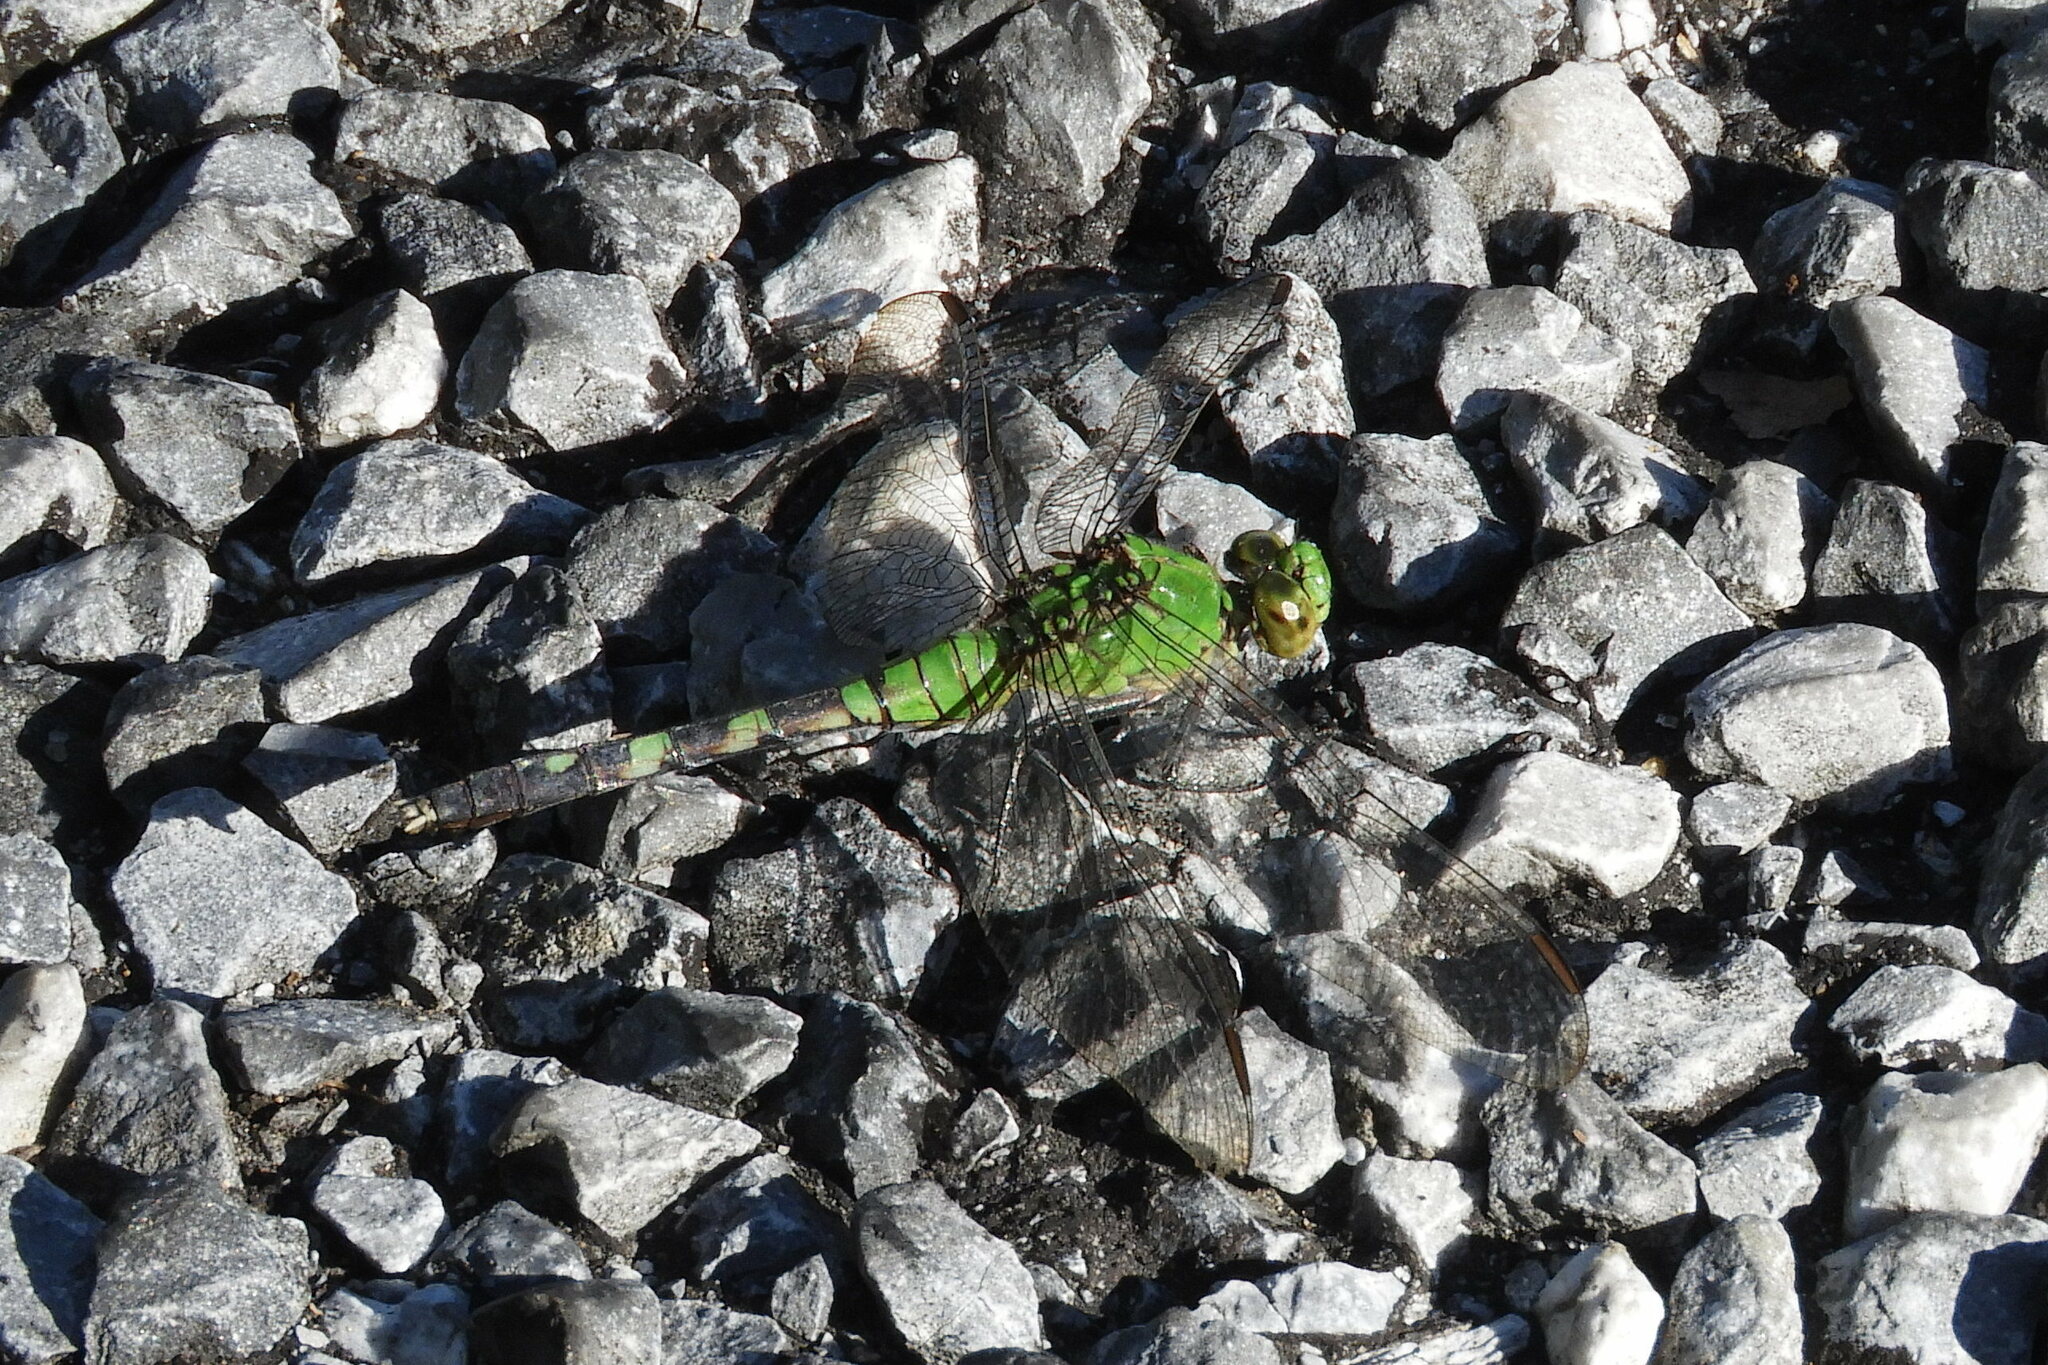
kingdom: Animalia
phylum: Arthropoda
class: Insecta
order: Odonata
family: Libellulidae
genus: Erythemis
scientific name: Erythemis simplicicollis
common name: Eastern pondhawk
